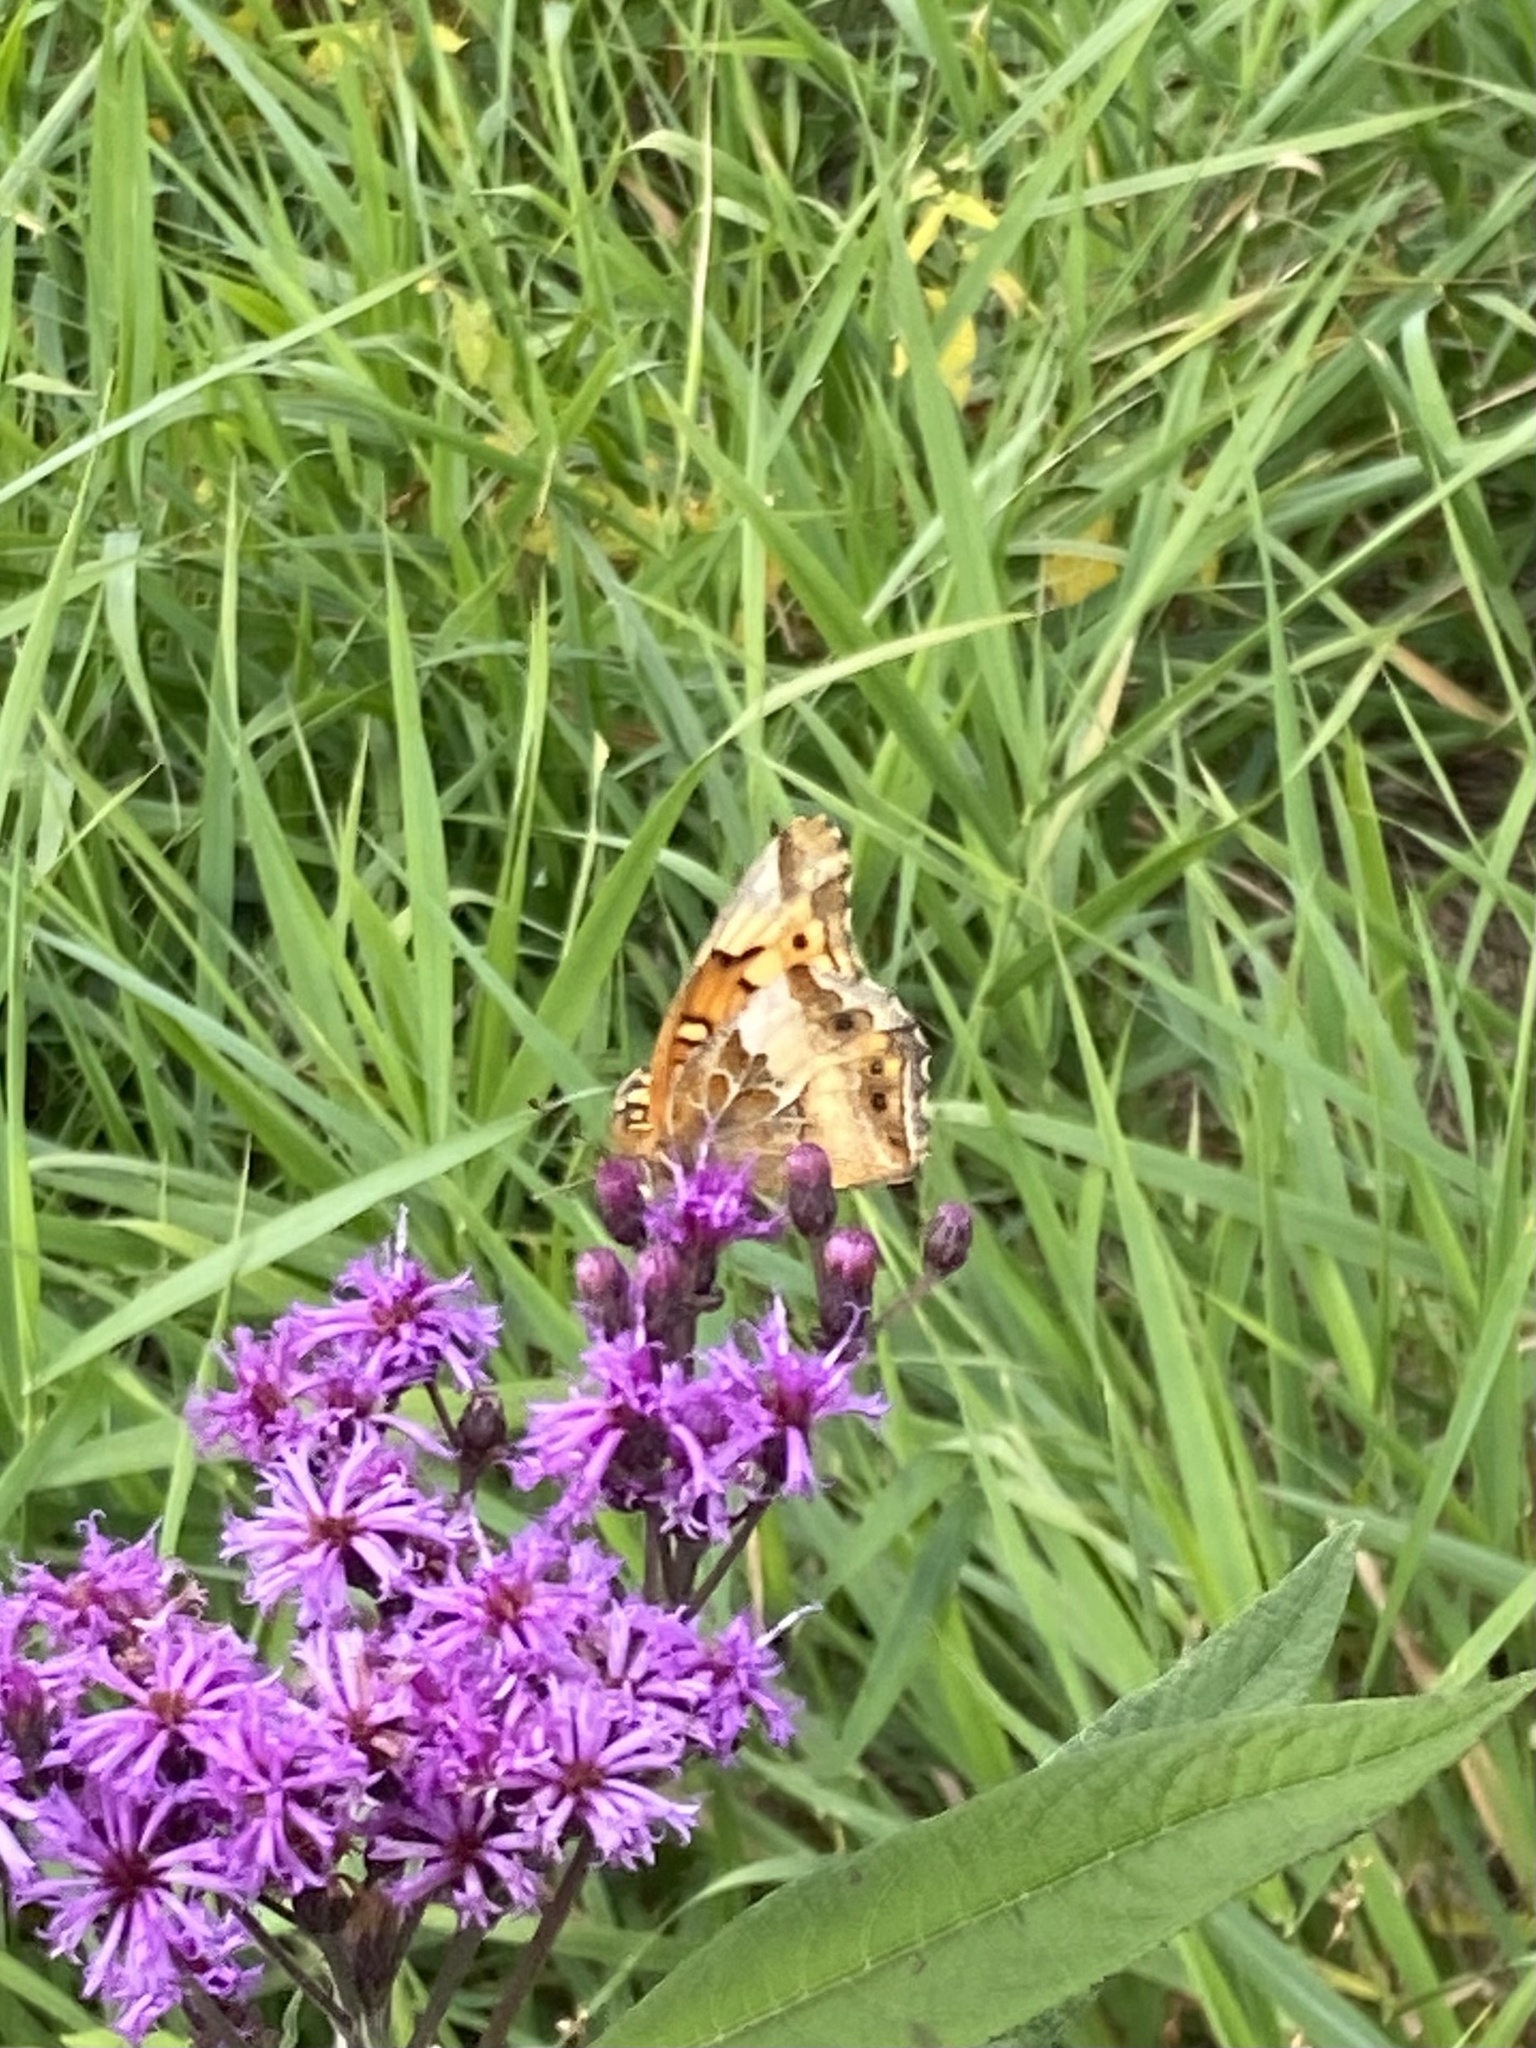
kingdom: Animalia
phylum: Arthropoda
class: Insecta
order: Lepidoptera
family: Nymphalidae
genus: Euptoieta
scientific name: Euptoieta claudia
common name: Variegated fritillary
